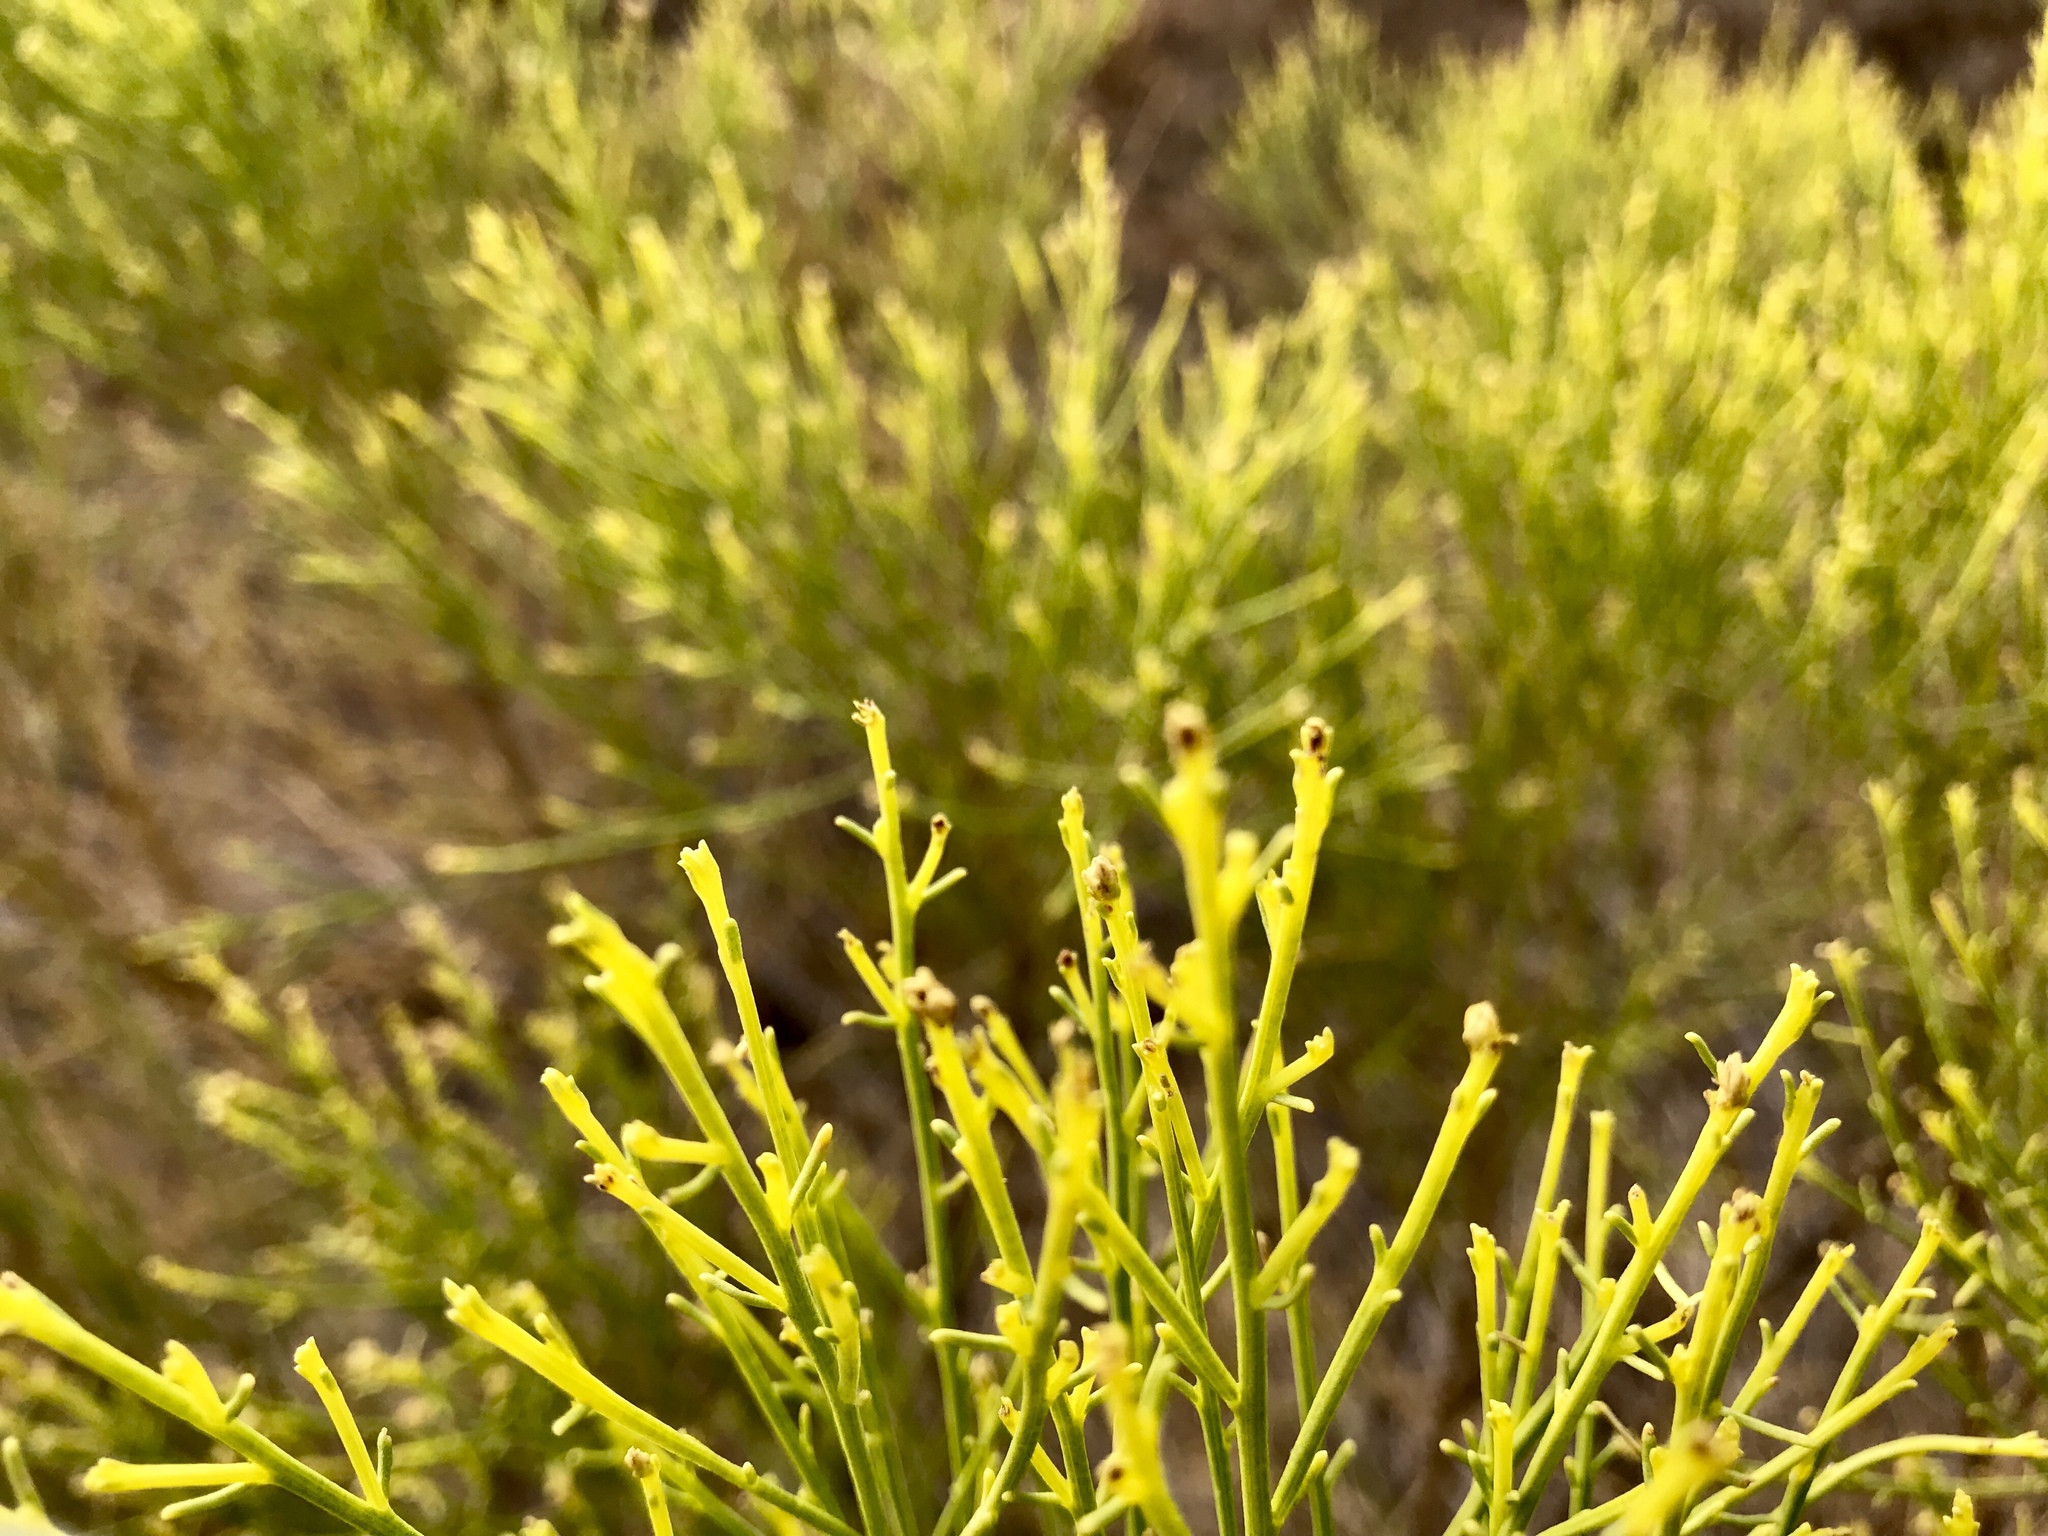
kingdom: Plantae
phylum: Tracheophyta
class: Magnoliopsida
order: Asterales
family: Asteraceae
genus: Baccharis
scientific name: Baccharis sarothroides
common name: Desert-broom
